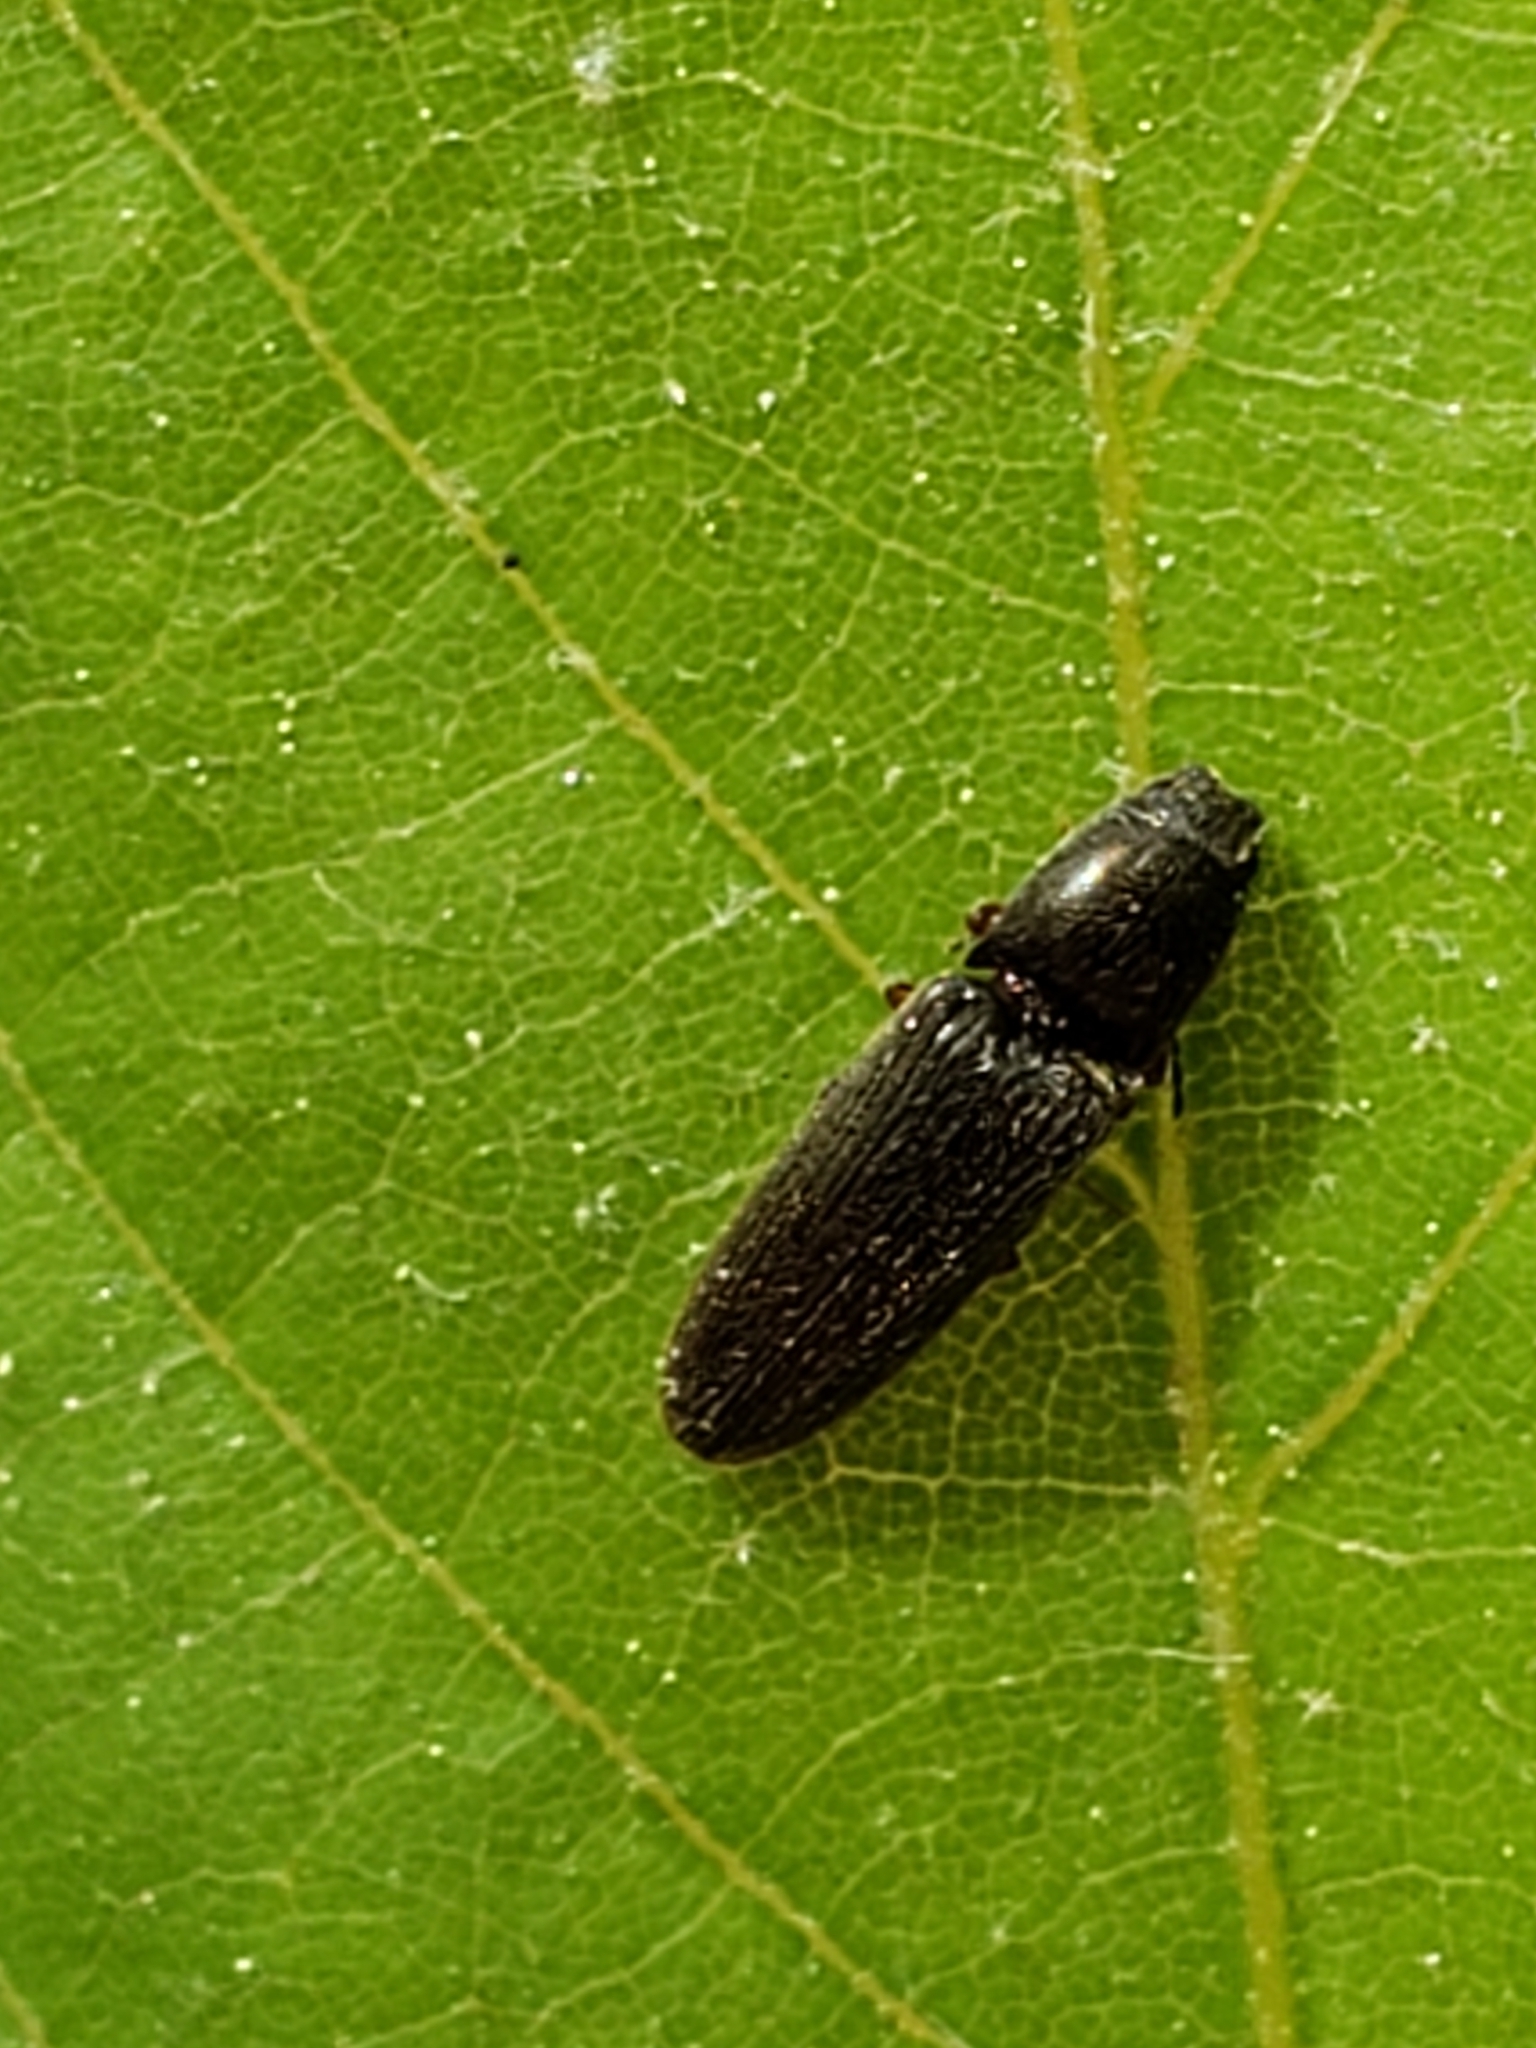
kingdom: Animalia
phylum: Arthropoda
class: Insecta
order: Coleoptera
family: Elateridae
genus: Limonius
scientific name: Limonius quercinus
